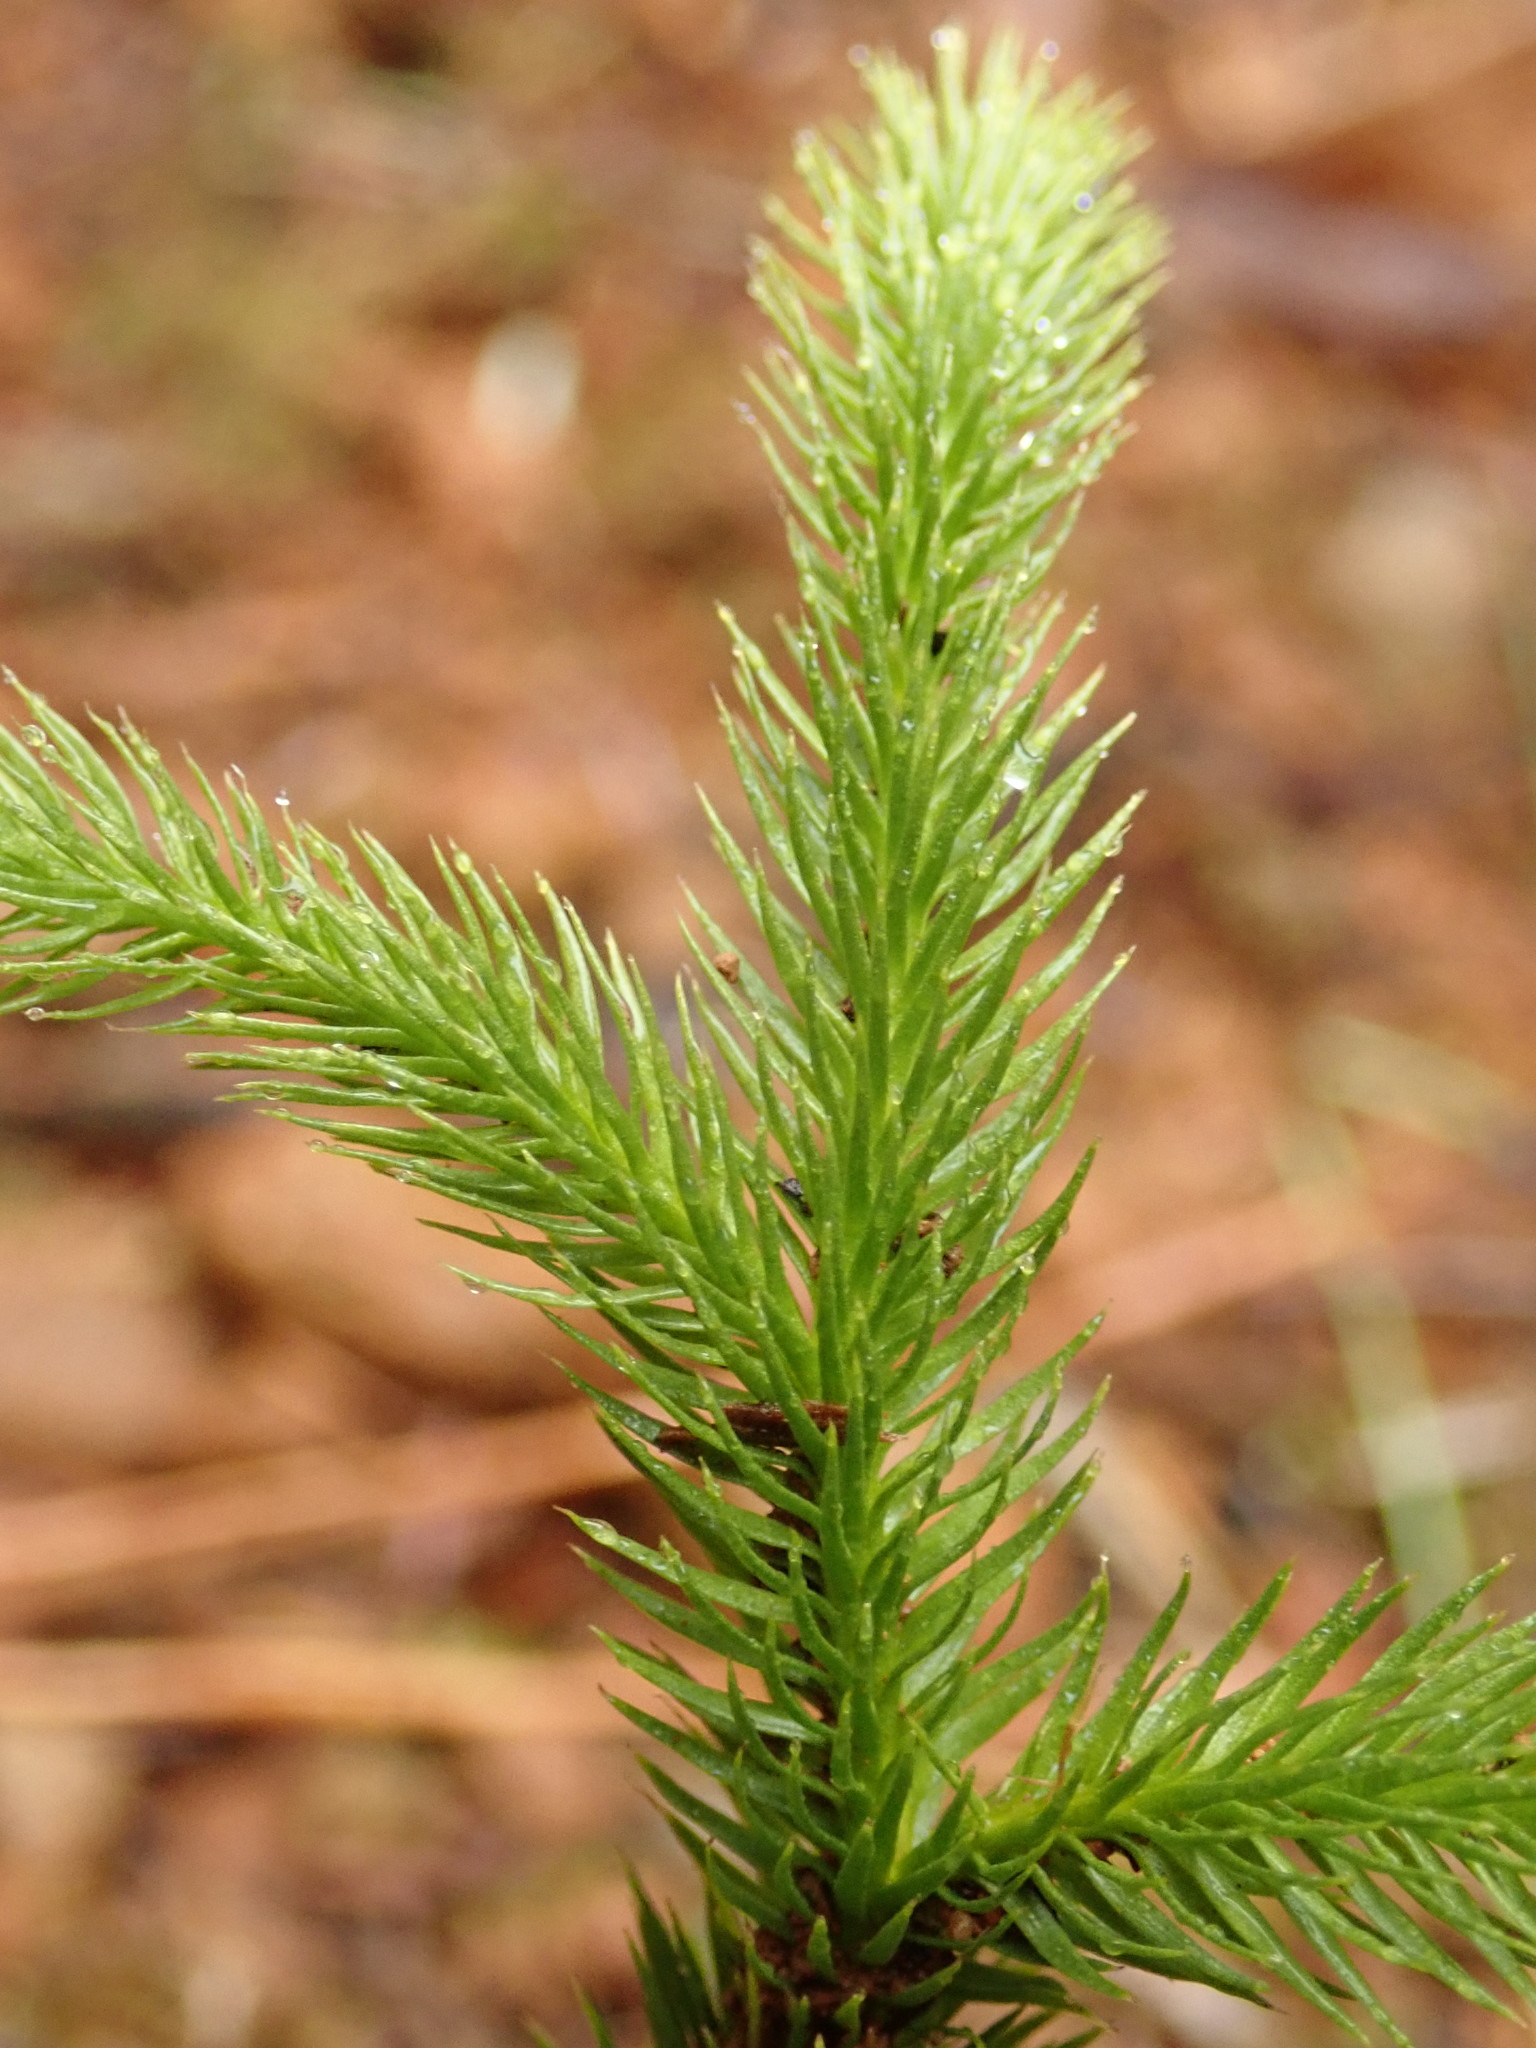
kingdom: Plantae
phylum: Tracheophyta
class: Lycopodiopsida
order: Lycopodiales
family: Lycopodiaceae
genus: Lycopodium
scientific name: Lycopodium clavatum
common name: Stag's-horn clubmoss
